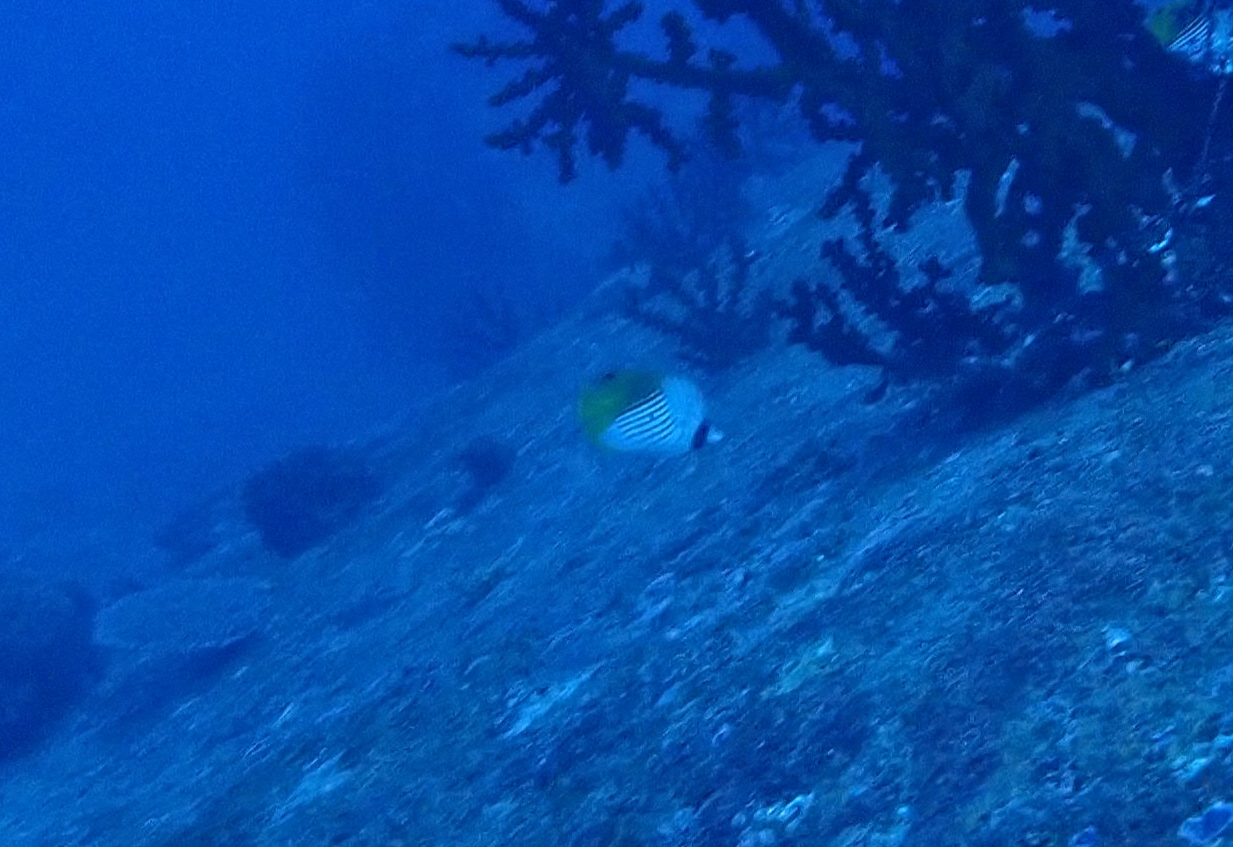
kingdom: Animalia
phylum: Chordata
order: Perciformes
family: Chaetodontidae
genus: Chaetodon
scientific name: Chaetodon auriga
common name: Threadfin butterflyfish
